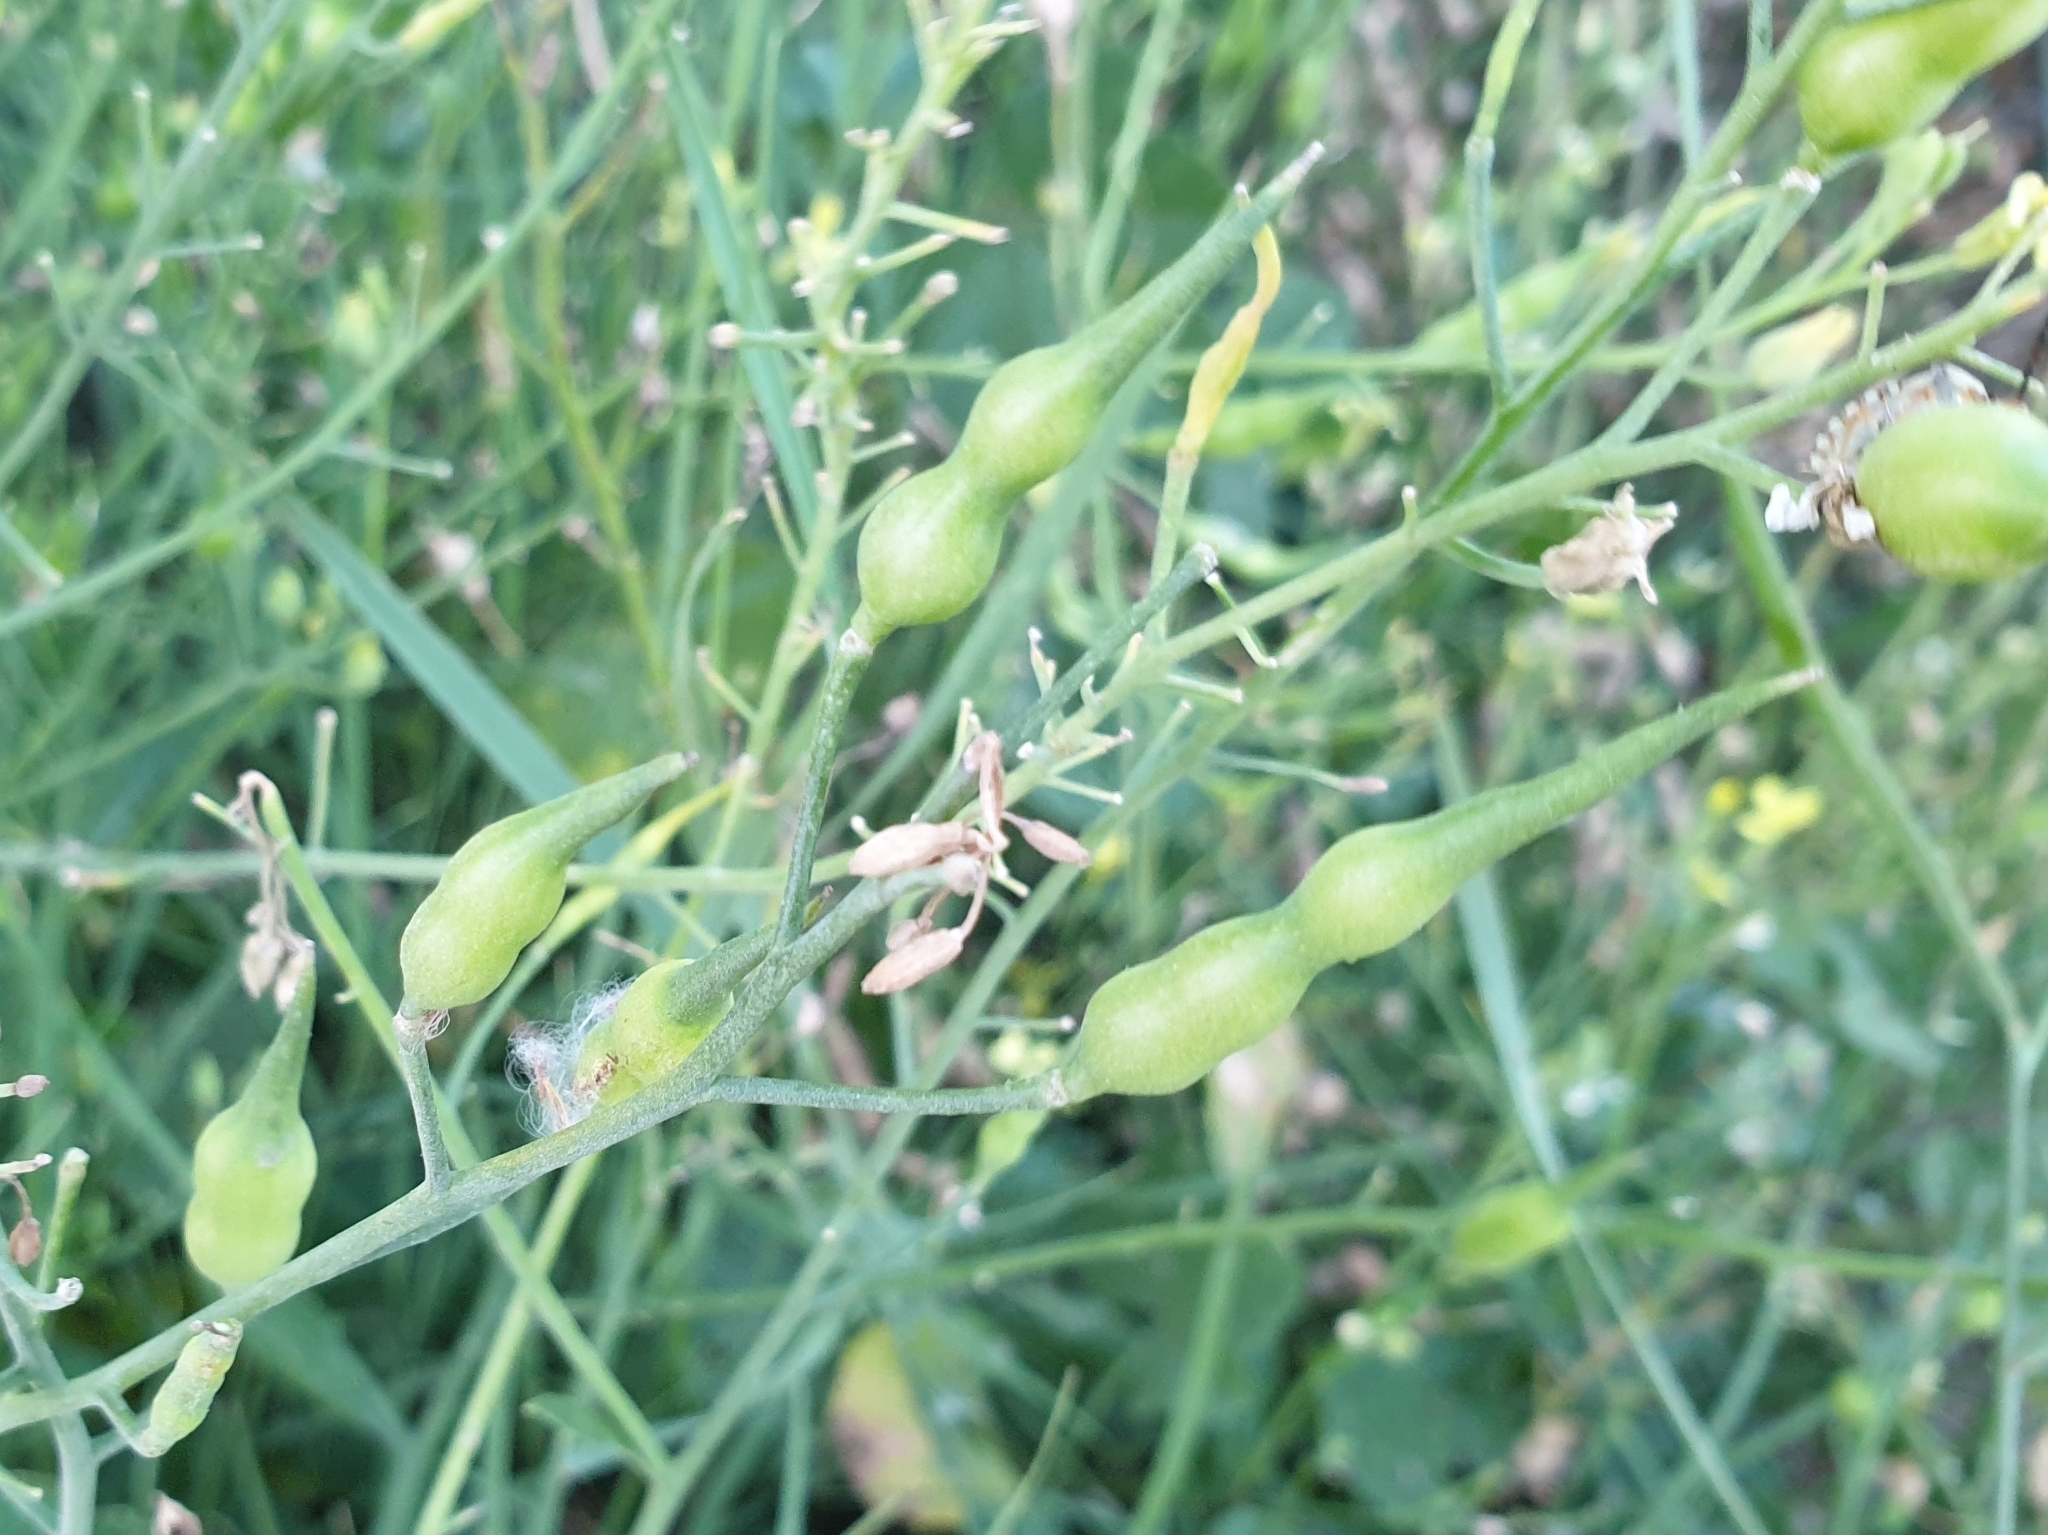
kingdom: Plantae
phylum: Tracheophyta
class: Magnoliopsida
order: Brassicales
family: Brassicaceae
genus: Raphanus
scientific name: Raphanus raphanistrum
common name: Wild radish
